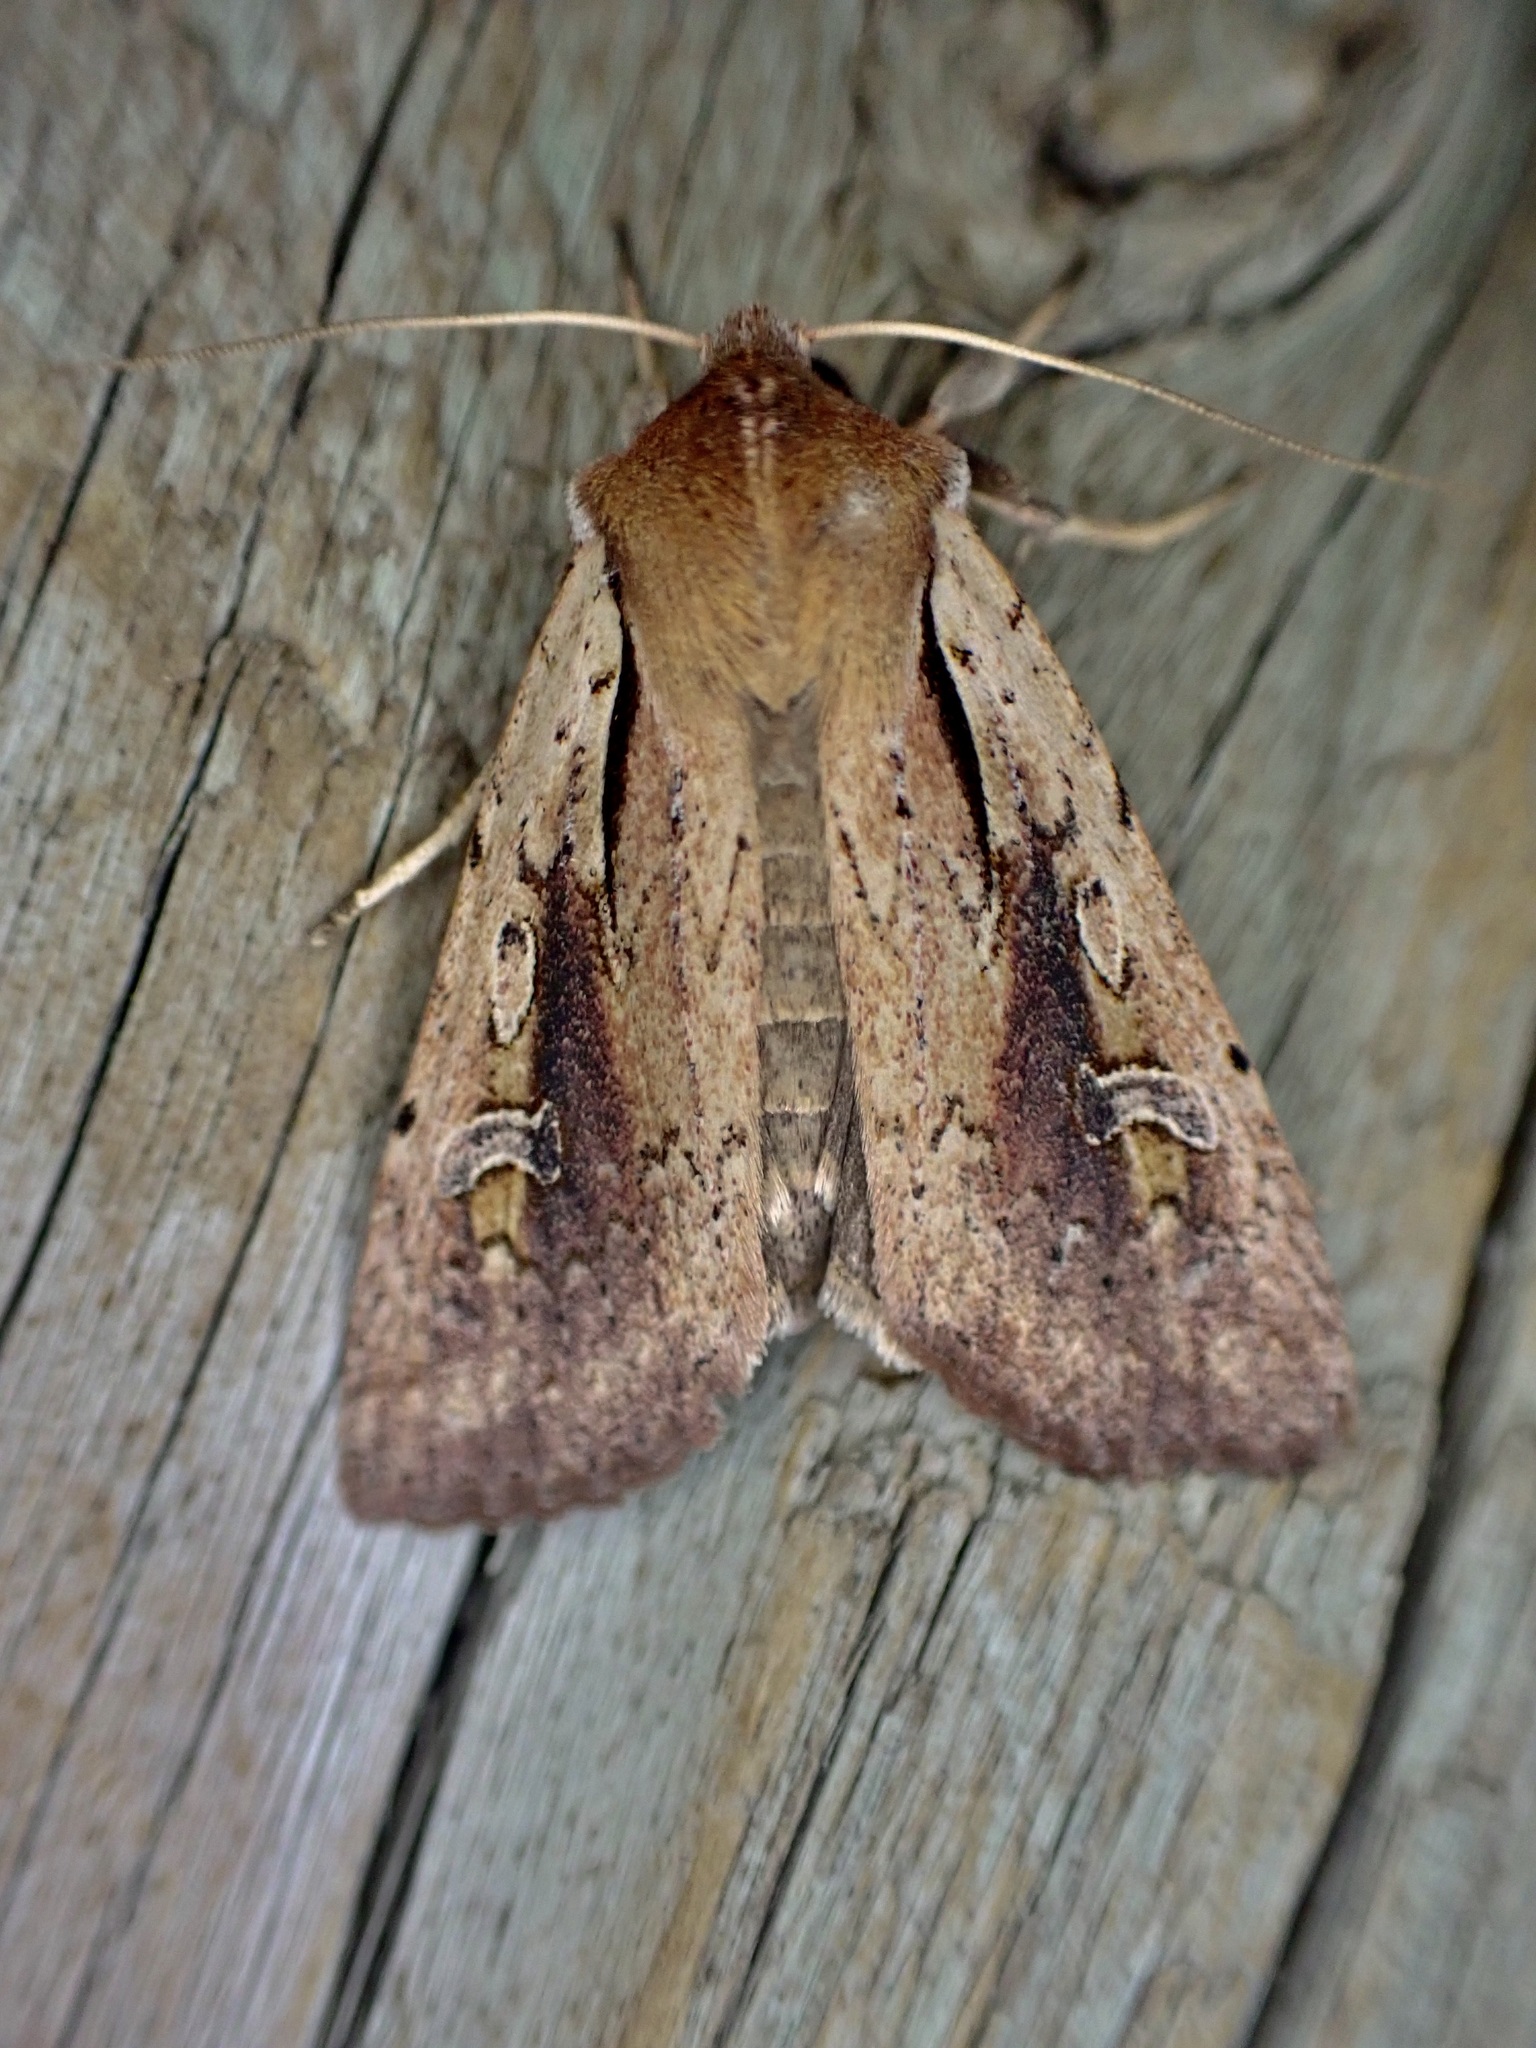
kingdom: Animalia
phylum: Arthropoda
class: Insecta
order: Lepidoptera
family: Noctuidae
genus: Ichneutica
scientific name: Ichneutica atristriga
